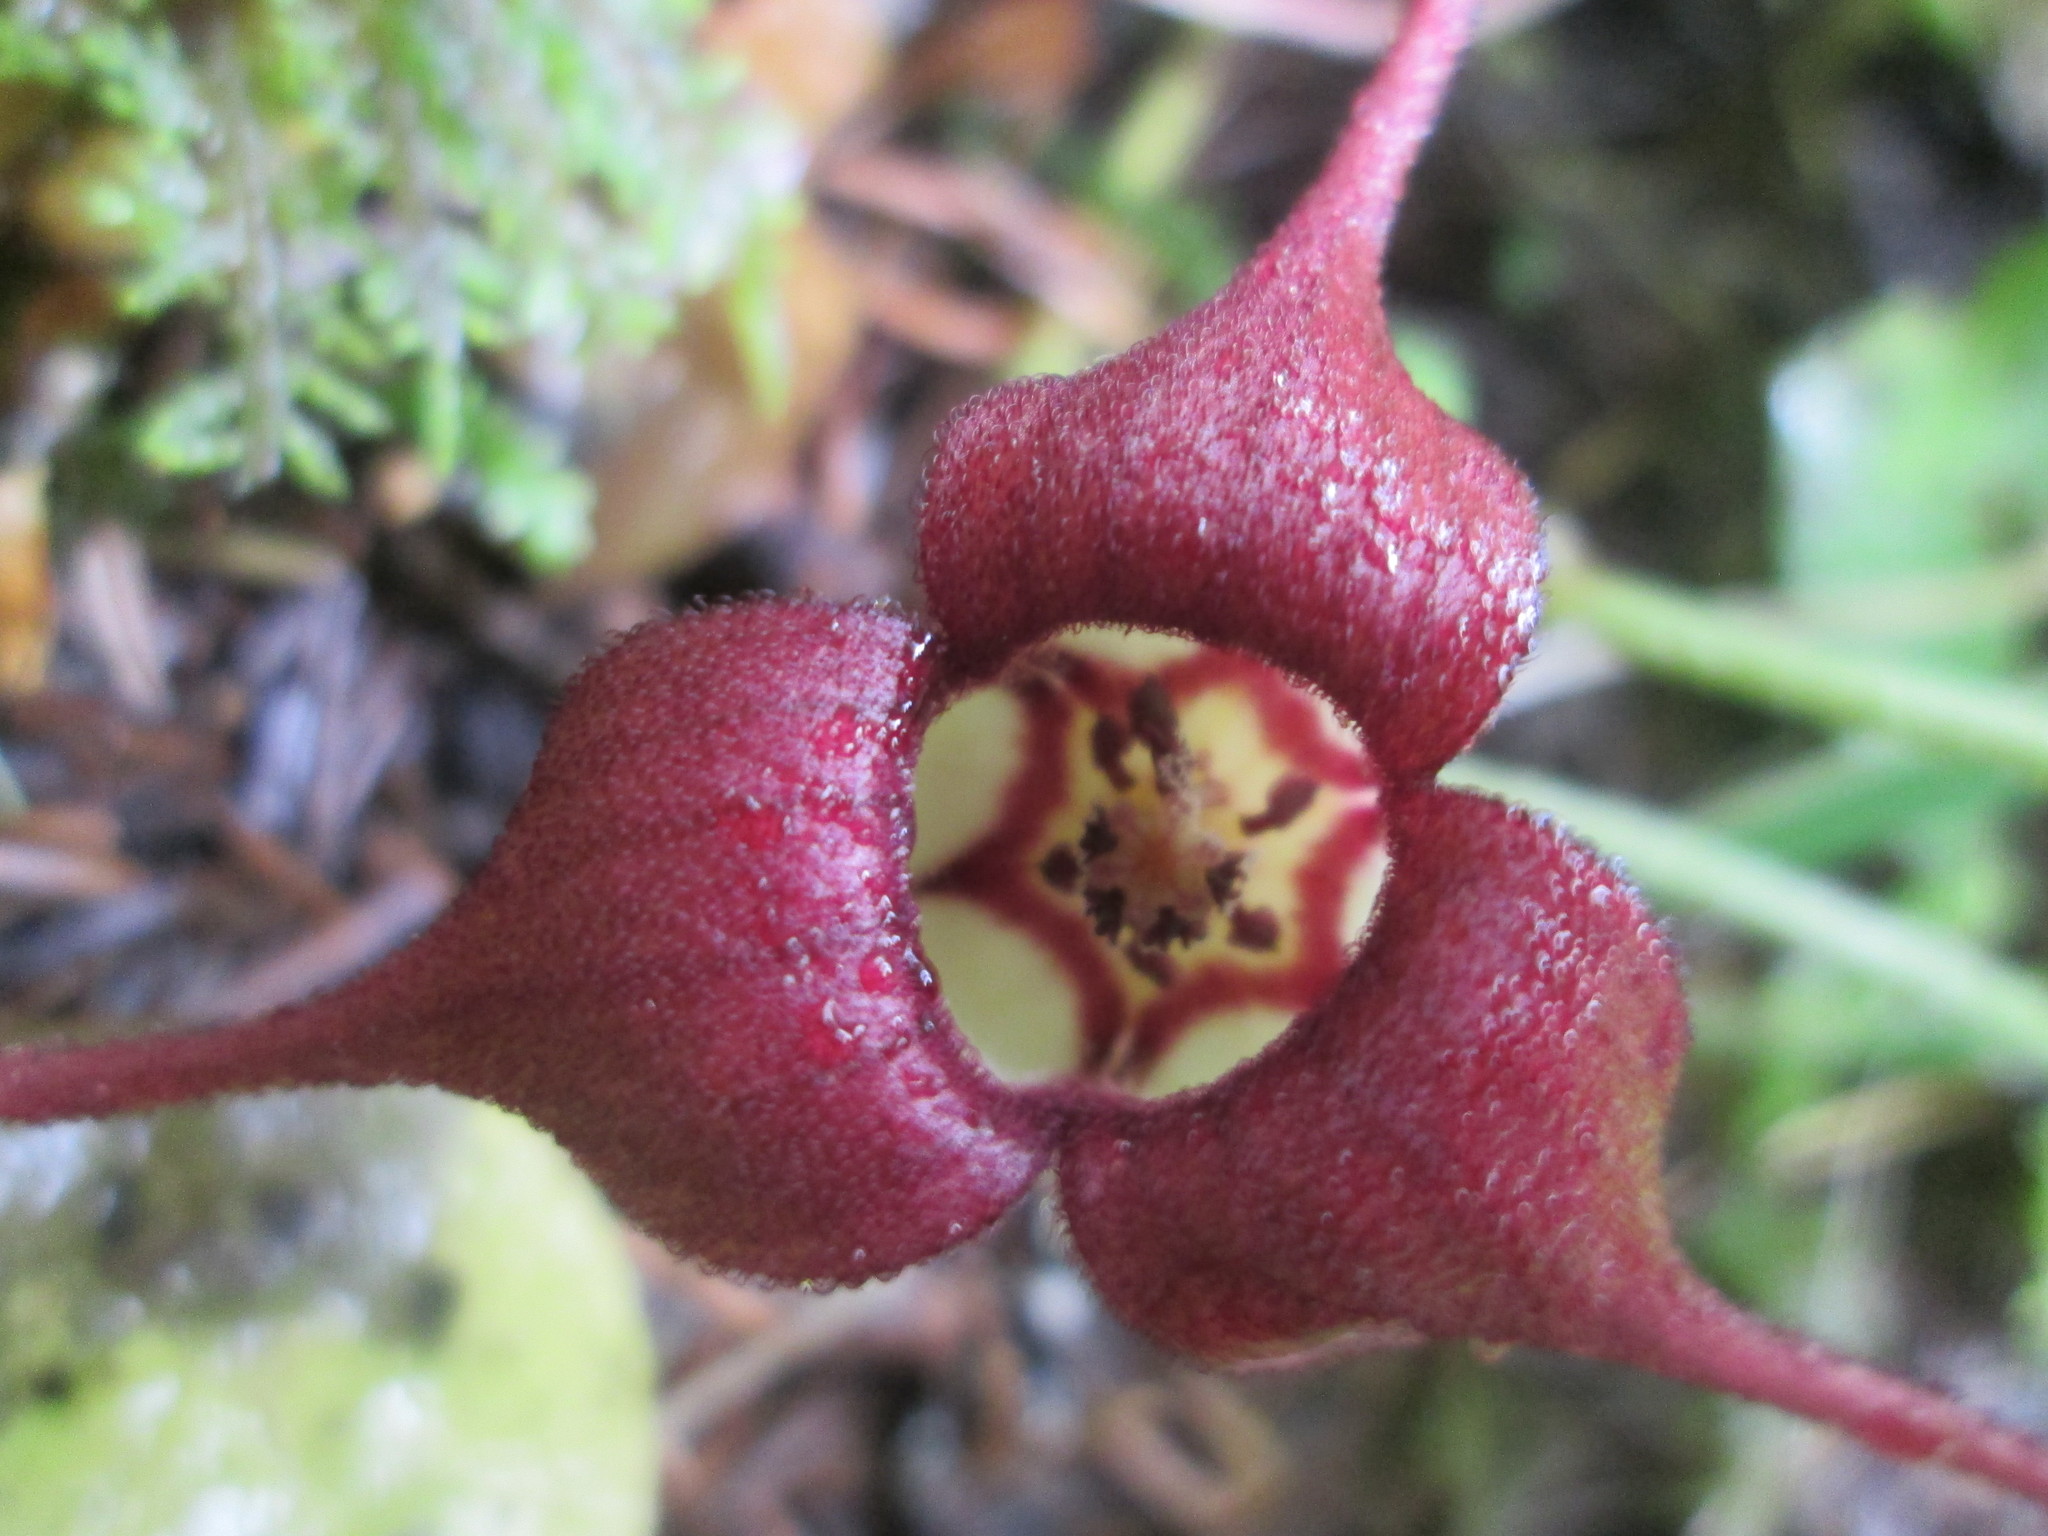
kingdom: Plantae
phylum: Tracheophyta
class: Magnoliopsida
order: Piperales
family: Aristolochiaceae
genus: Asarum
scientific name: Asarum caudatum
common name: Wild ginger
